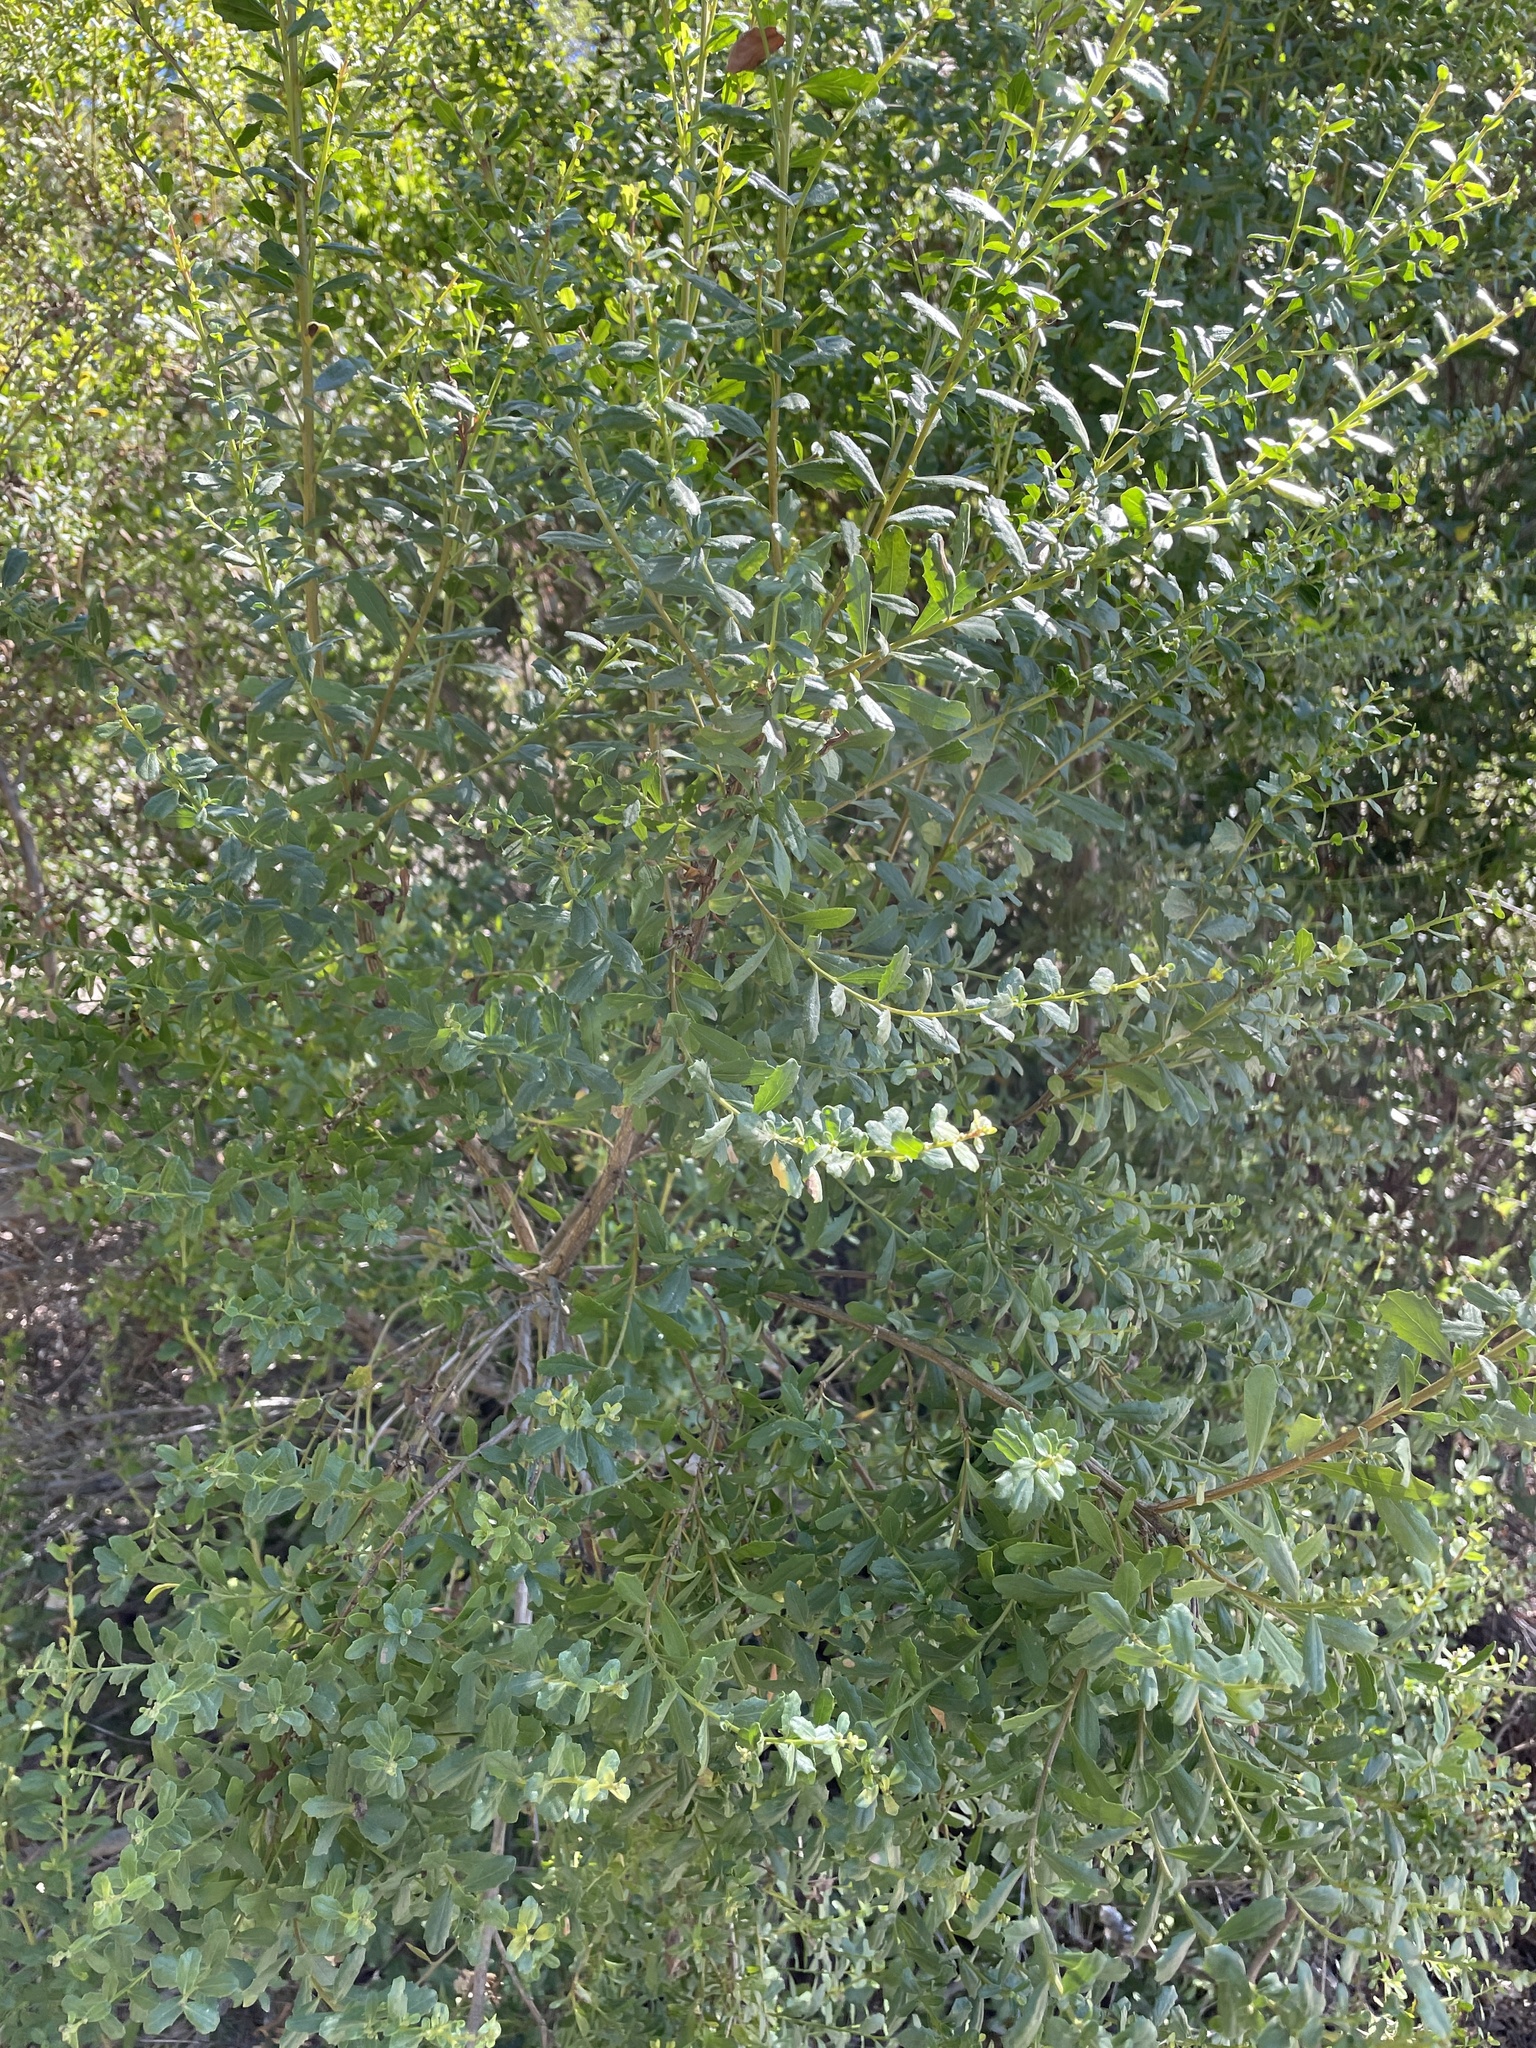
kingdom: Plantae
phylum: Tracheophyta
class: Magnoliopsida
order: Asterales
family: Asteraceae
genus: Baccharis
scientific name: Baccharis pilularis
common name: Coyotebrush
